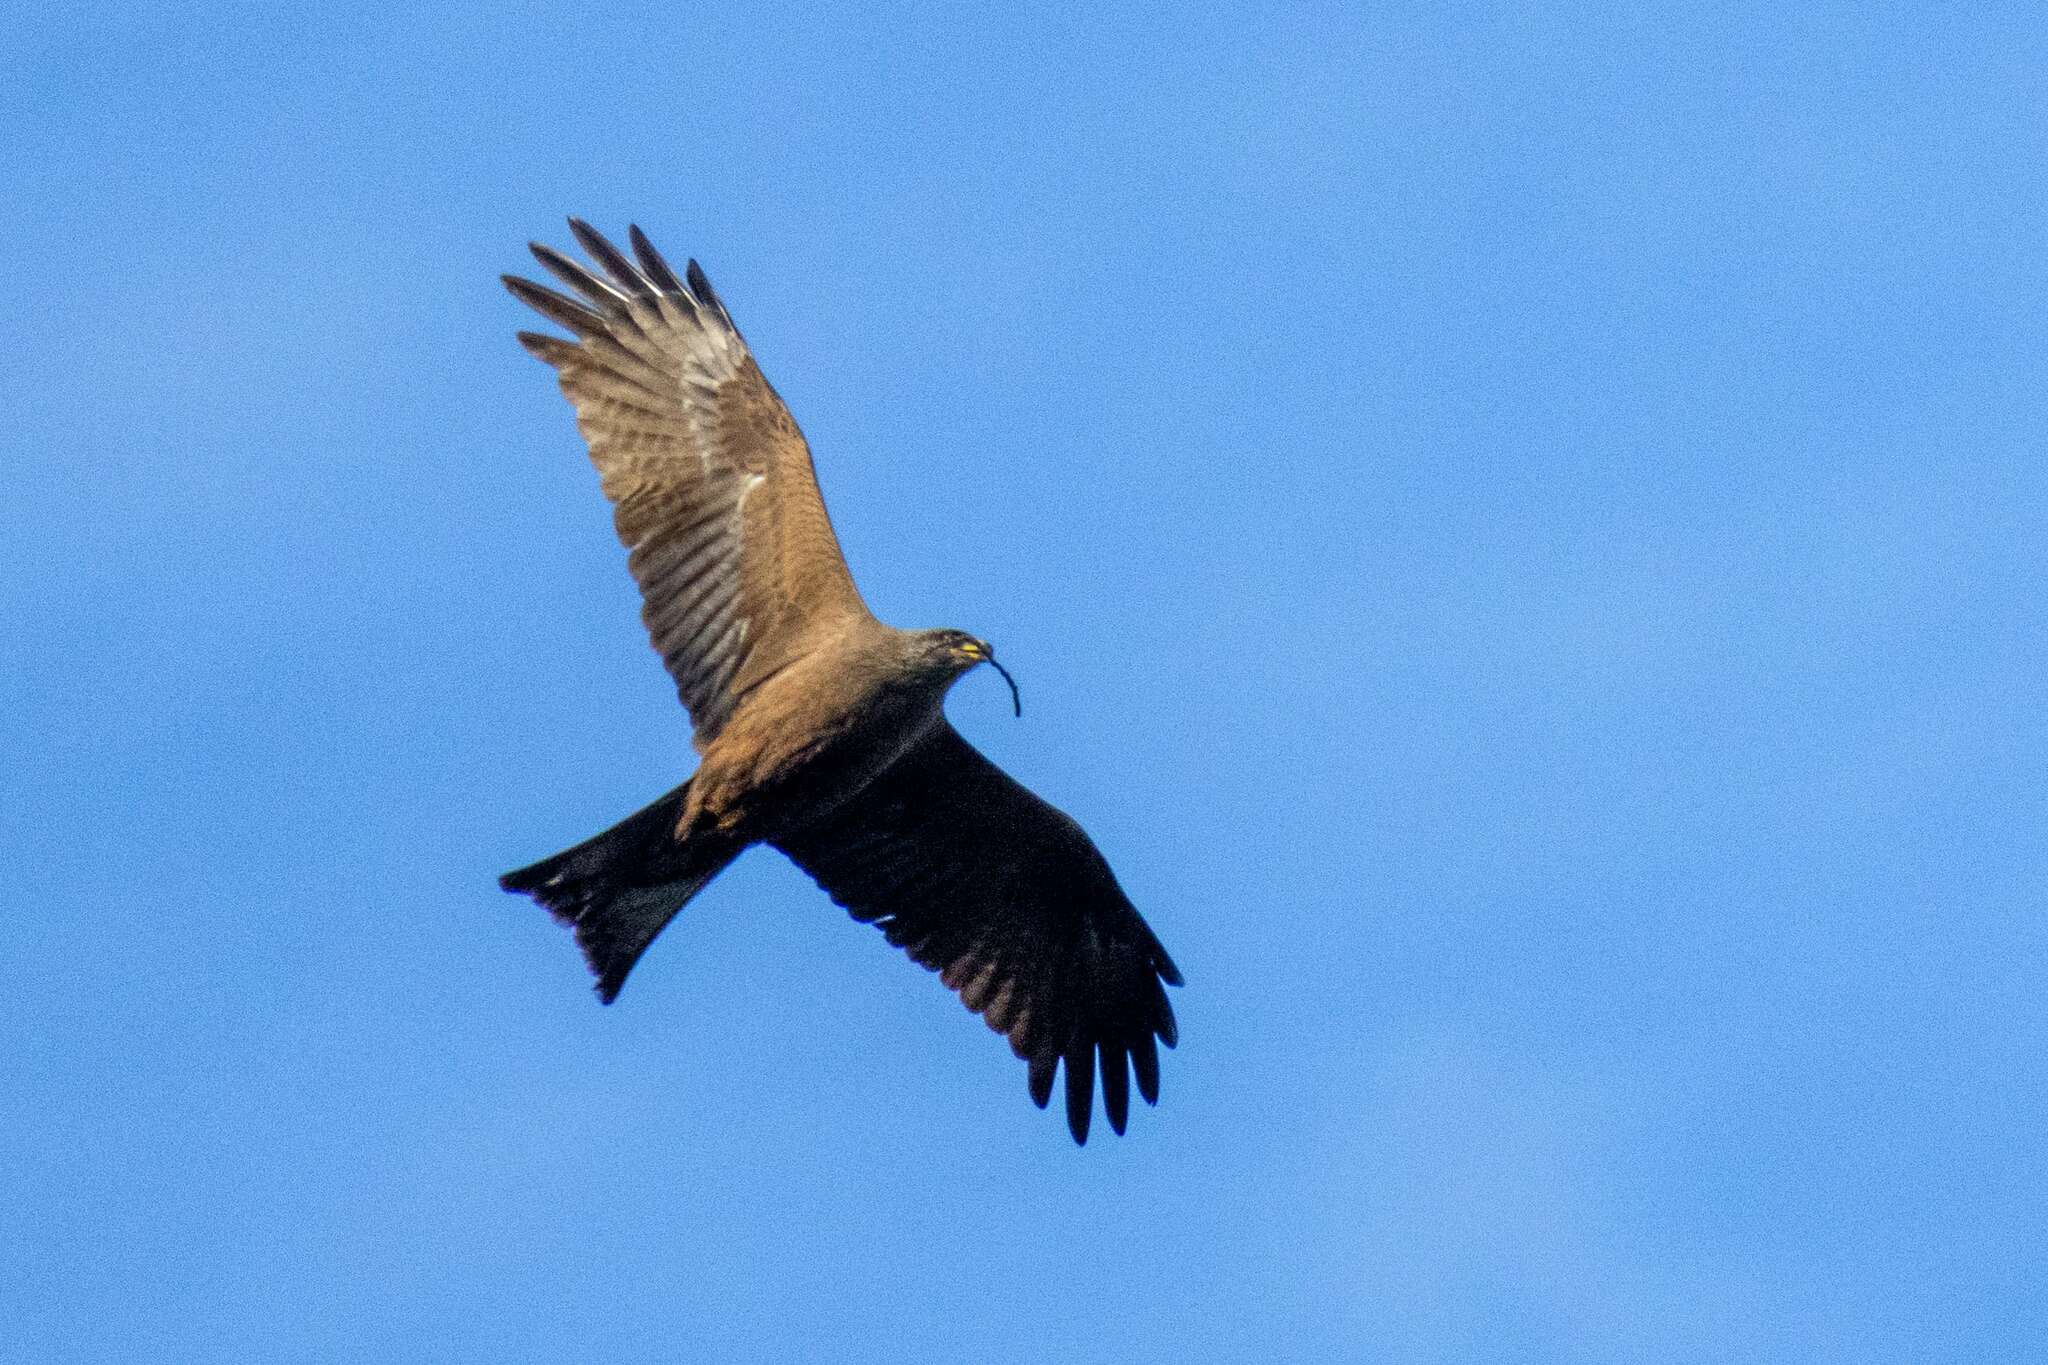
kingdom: Animalia
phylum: Chordata
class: Aves
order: Accipitriformes
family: Accipitridae
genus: Milvus
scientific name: Milvus migrans
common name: Black kite
